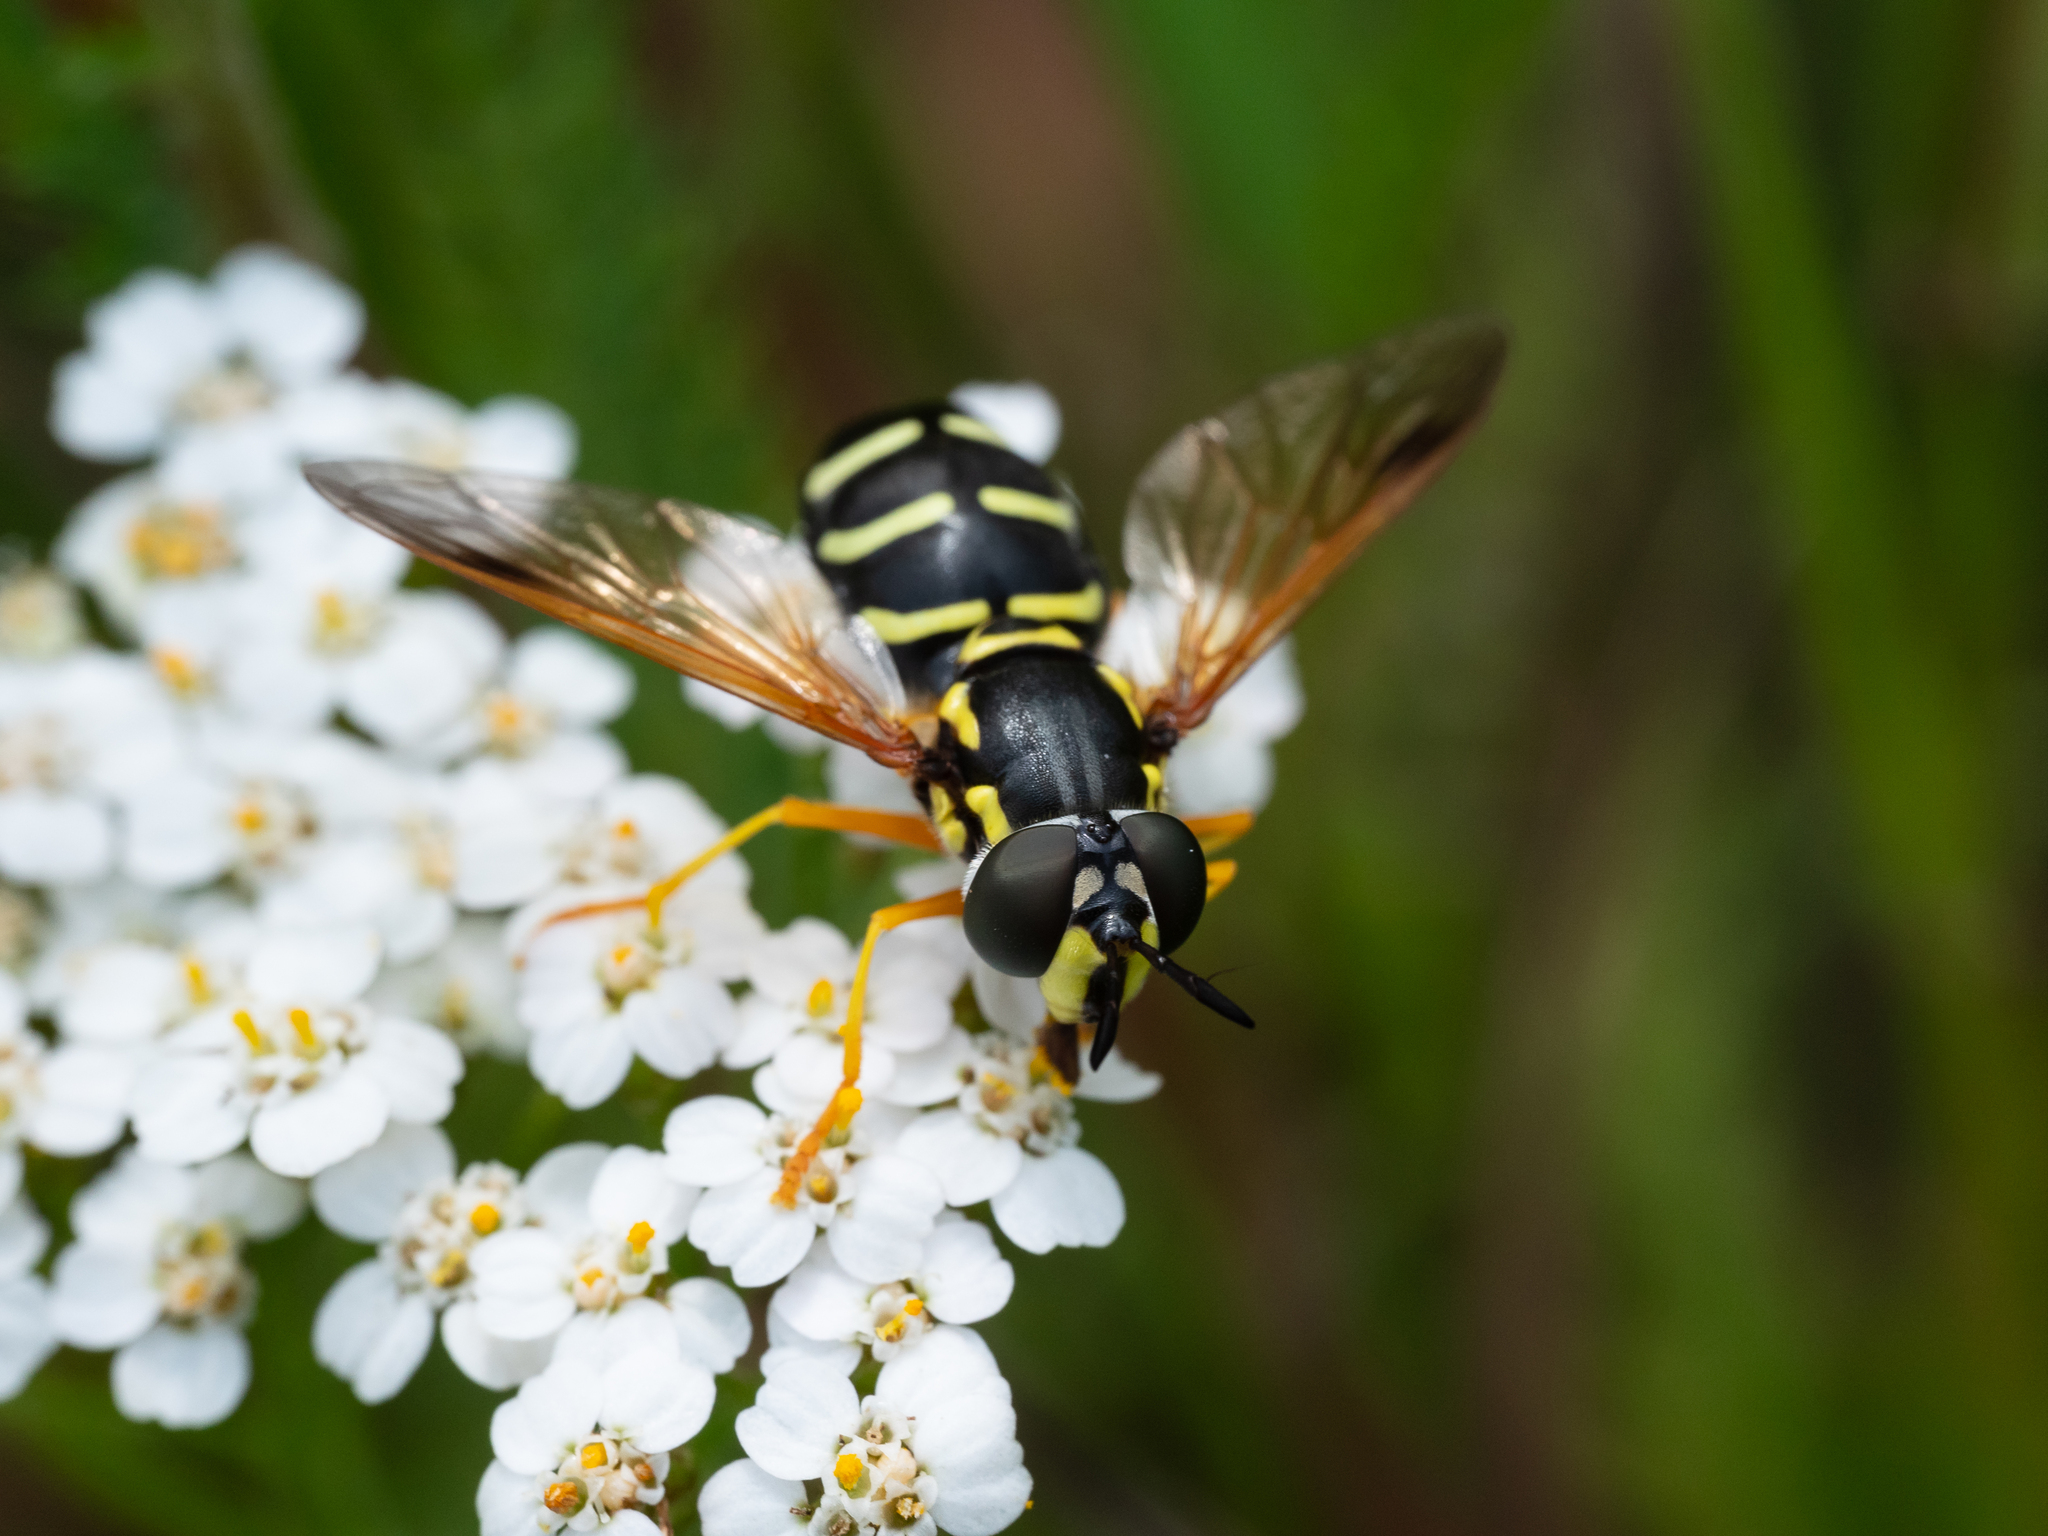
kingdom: Animalia
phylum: Arthropoda
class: Insecta
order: Diptera
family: Syrphidae
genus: Chrysotoxum
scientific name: Chrysotoxum festivum
